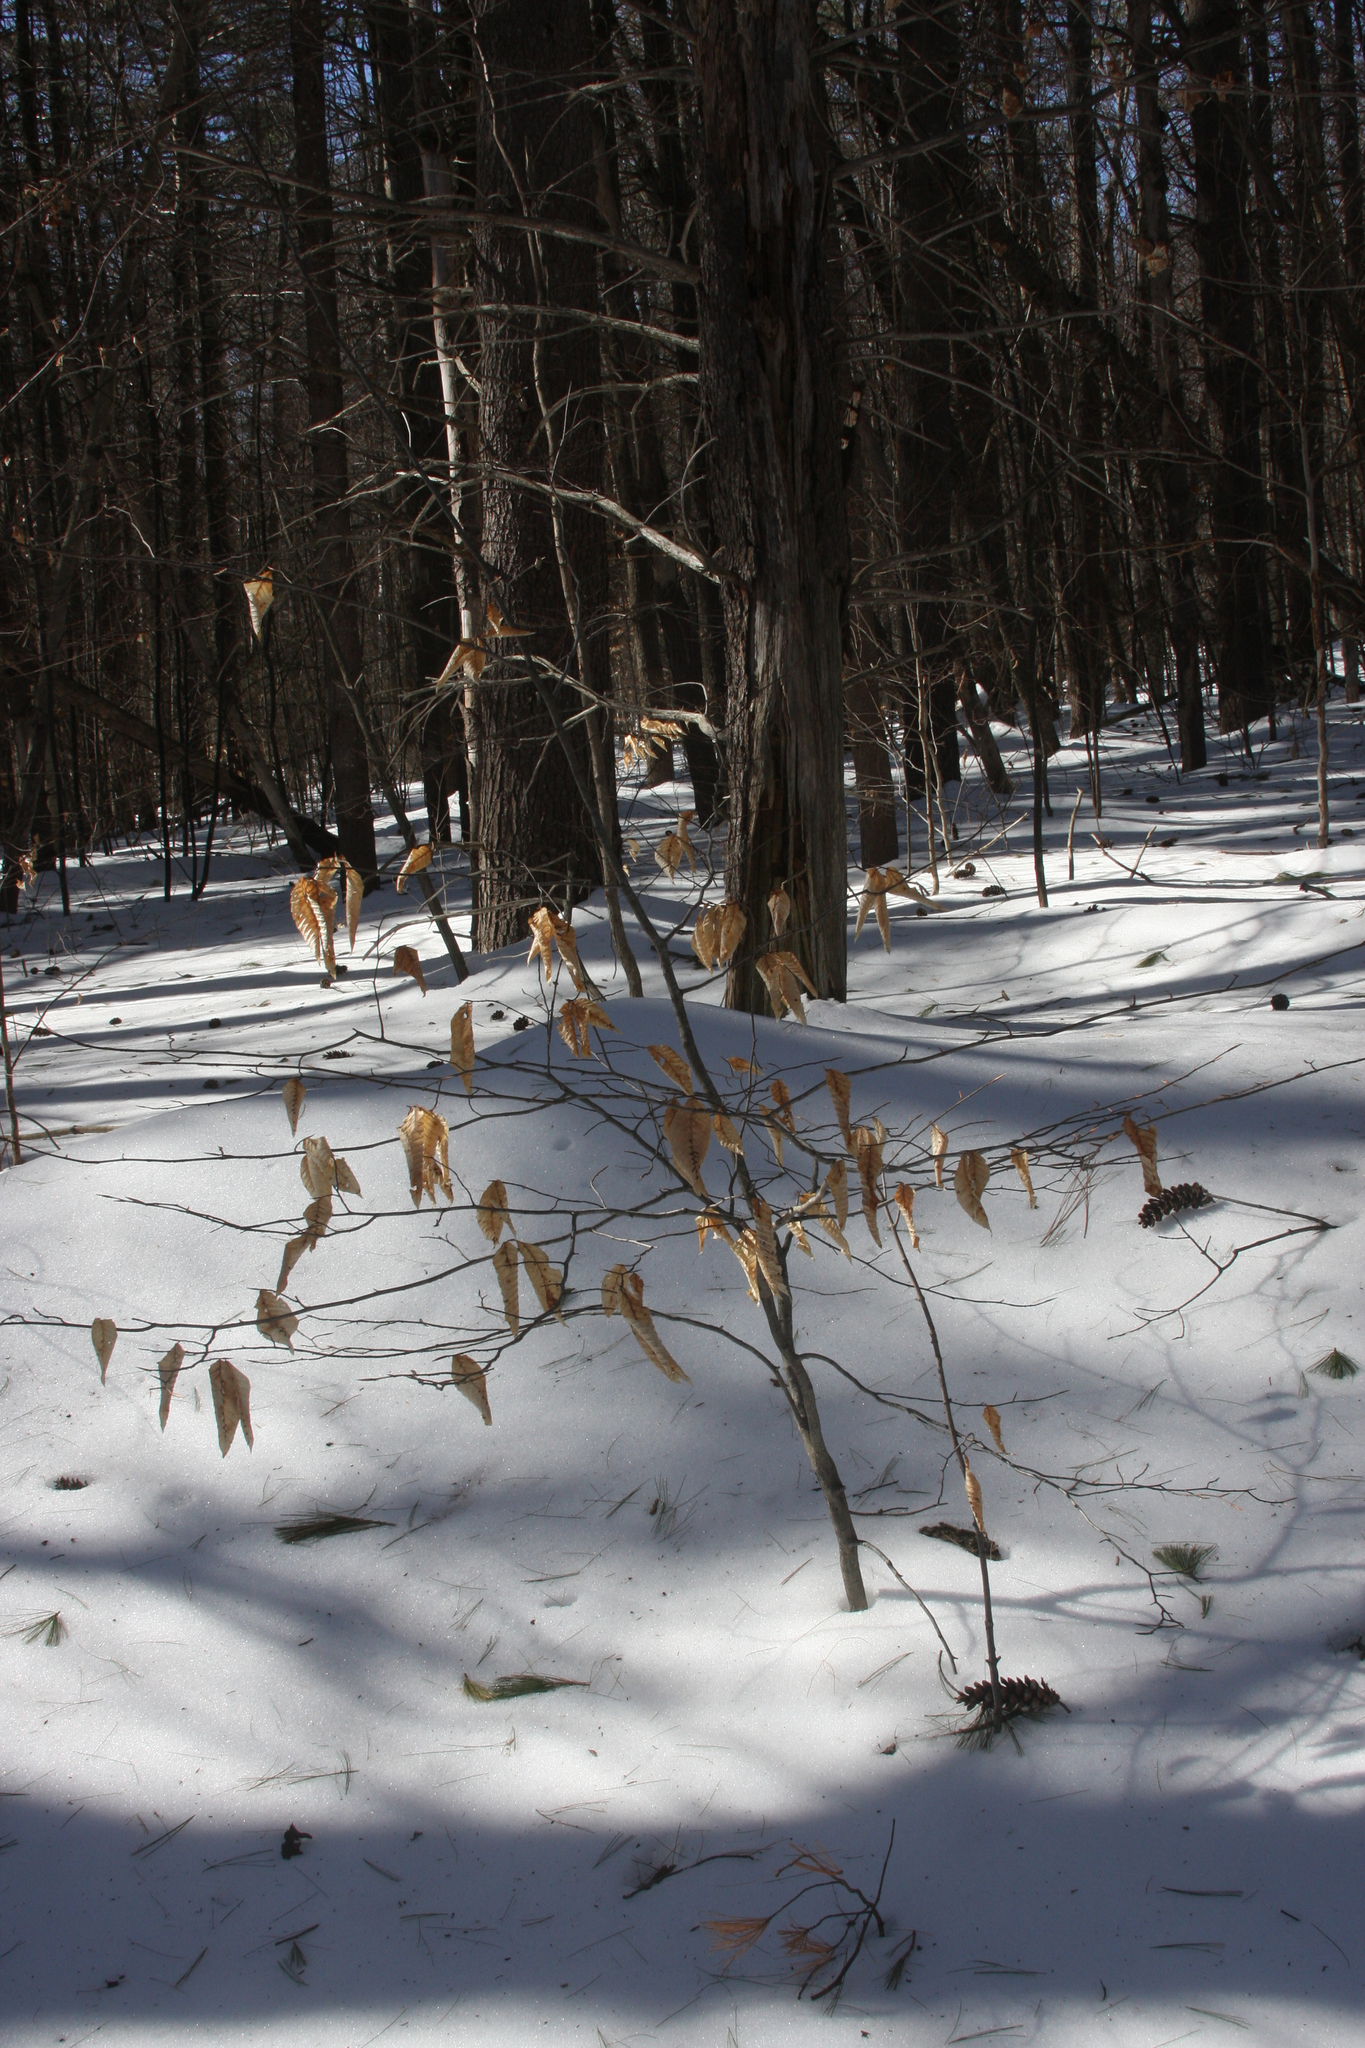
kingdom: Plantae
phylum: Tracheophyta
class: Magnoliopsida
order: Fagales
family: Fagaceae
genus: Fagus
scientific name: Fagus grandifolia
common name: American beech
